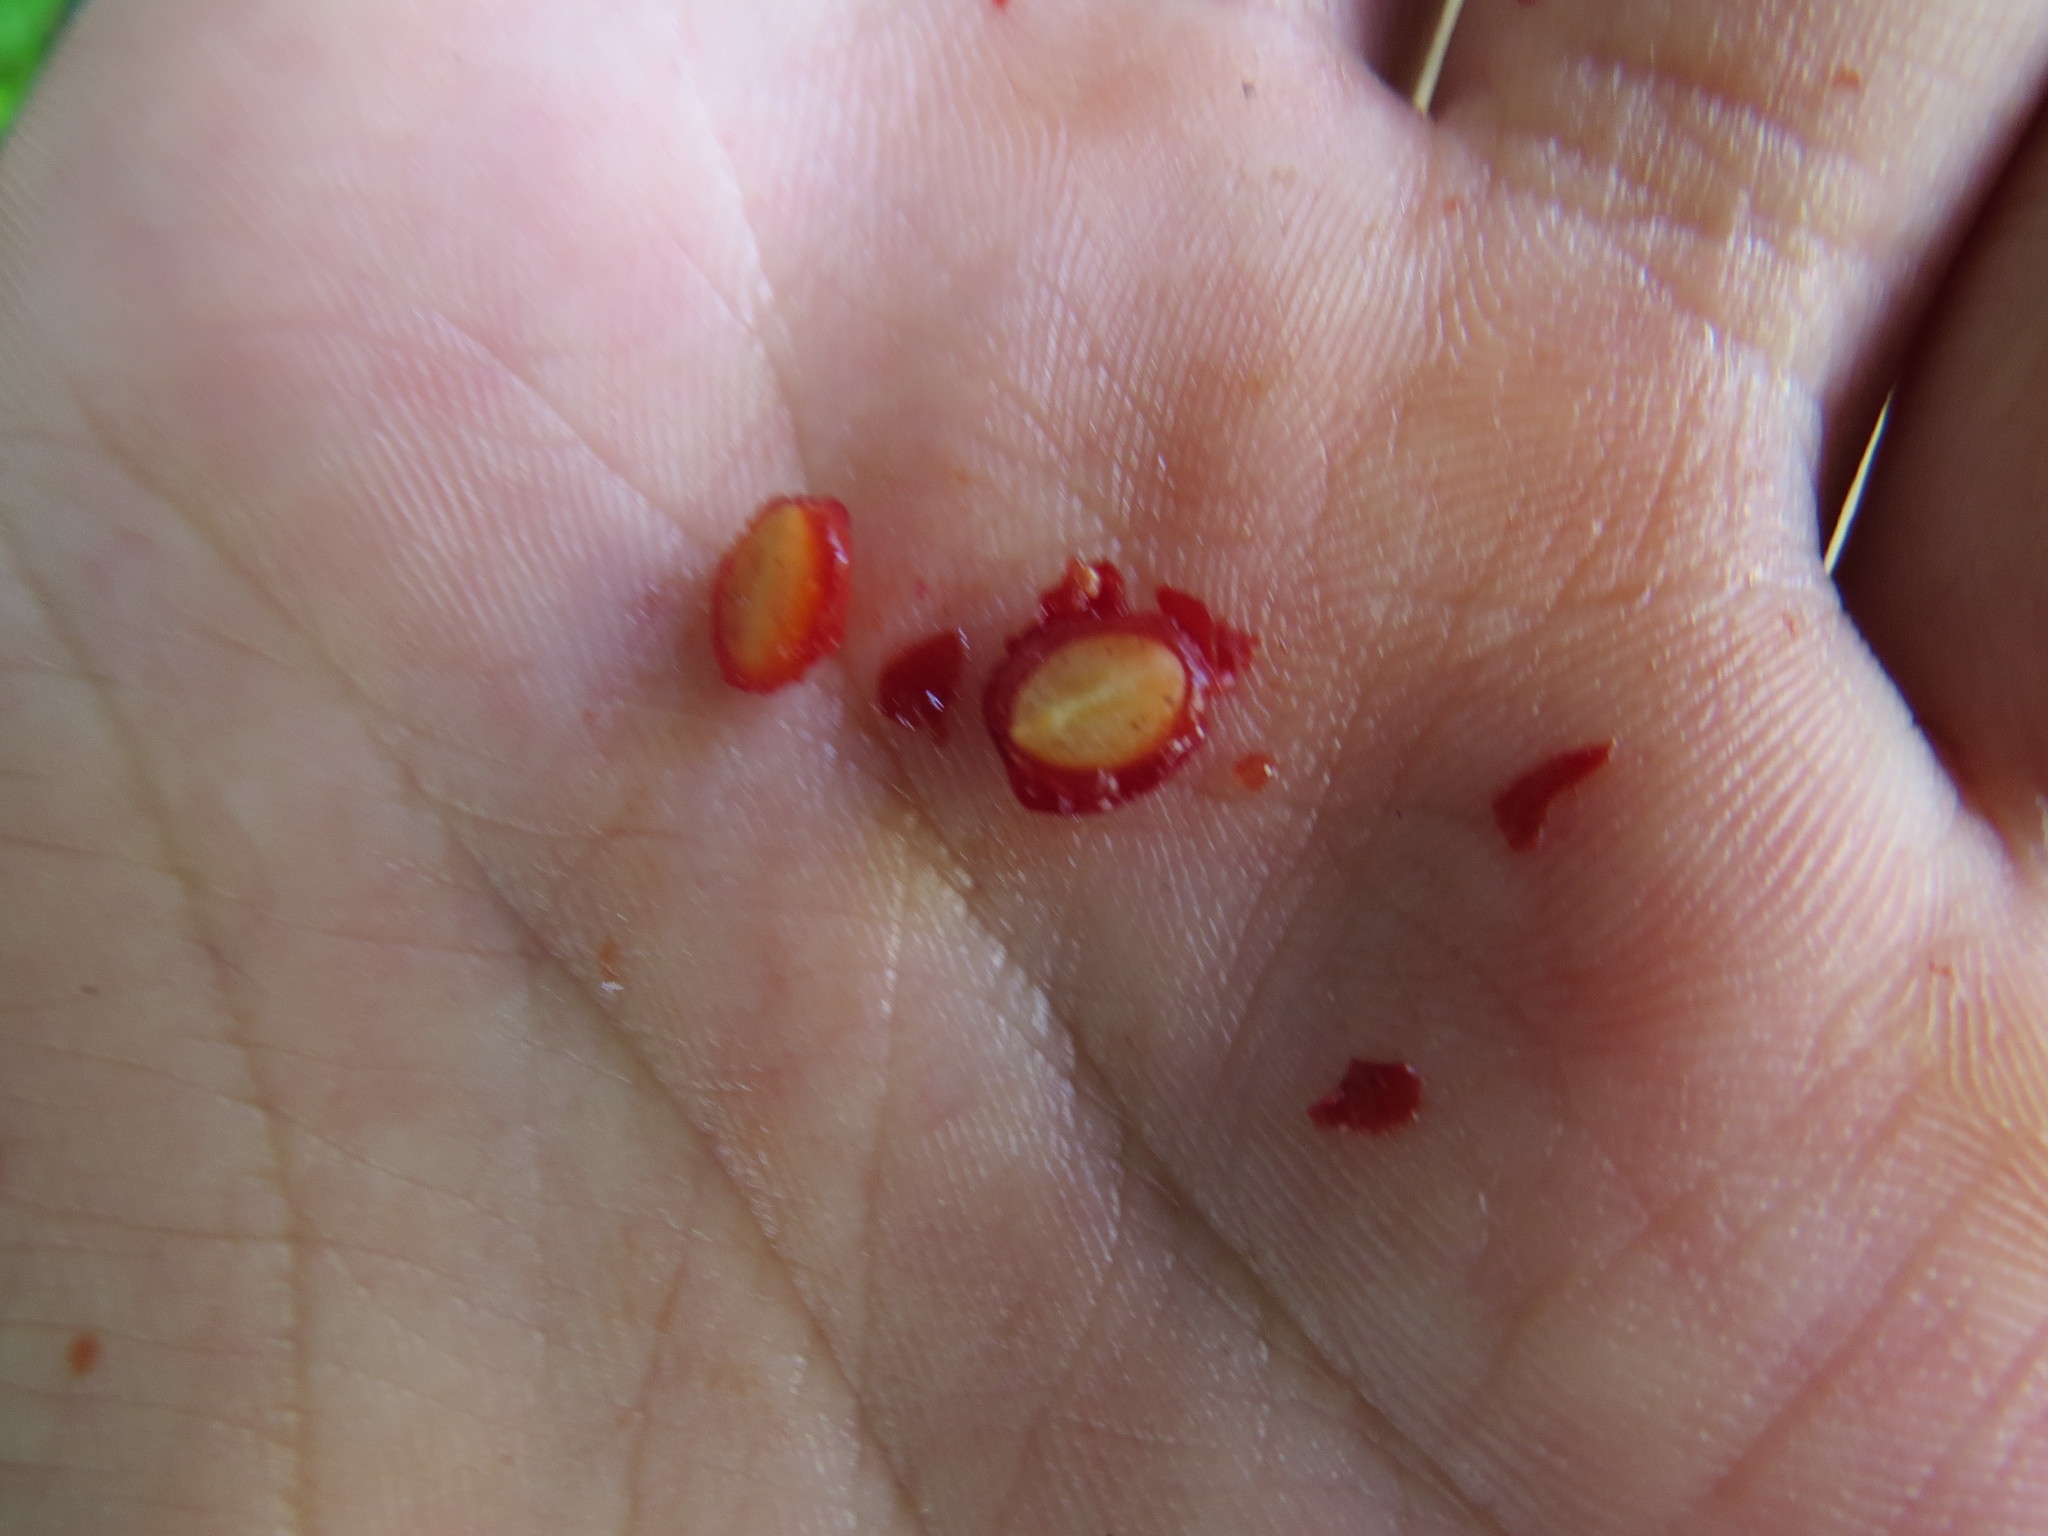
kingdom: Plantae
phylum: Tracheophyta
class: Magnoliopsida
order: Gentianales
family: Rubiaceae
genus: Psychotria
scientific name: Psychotria carthagenensis
